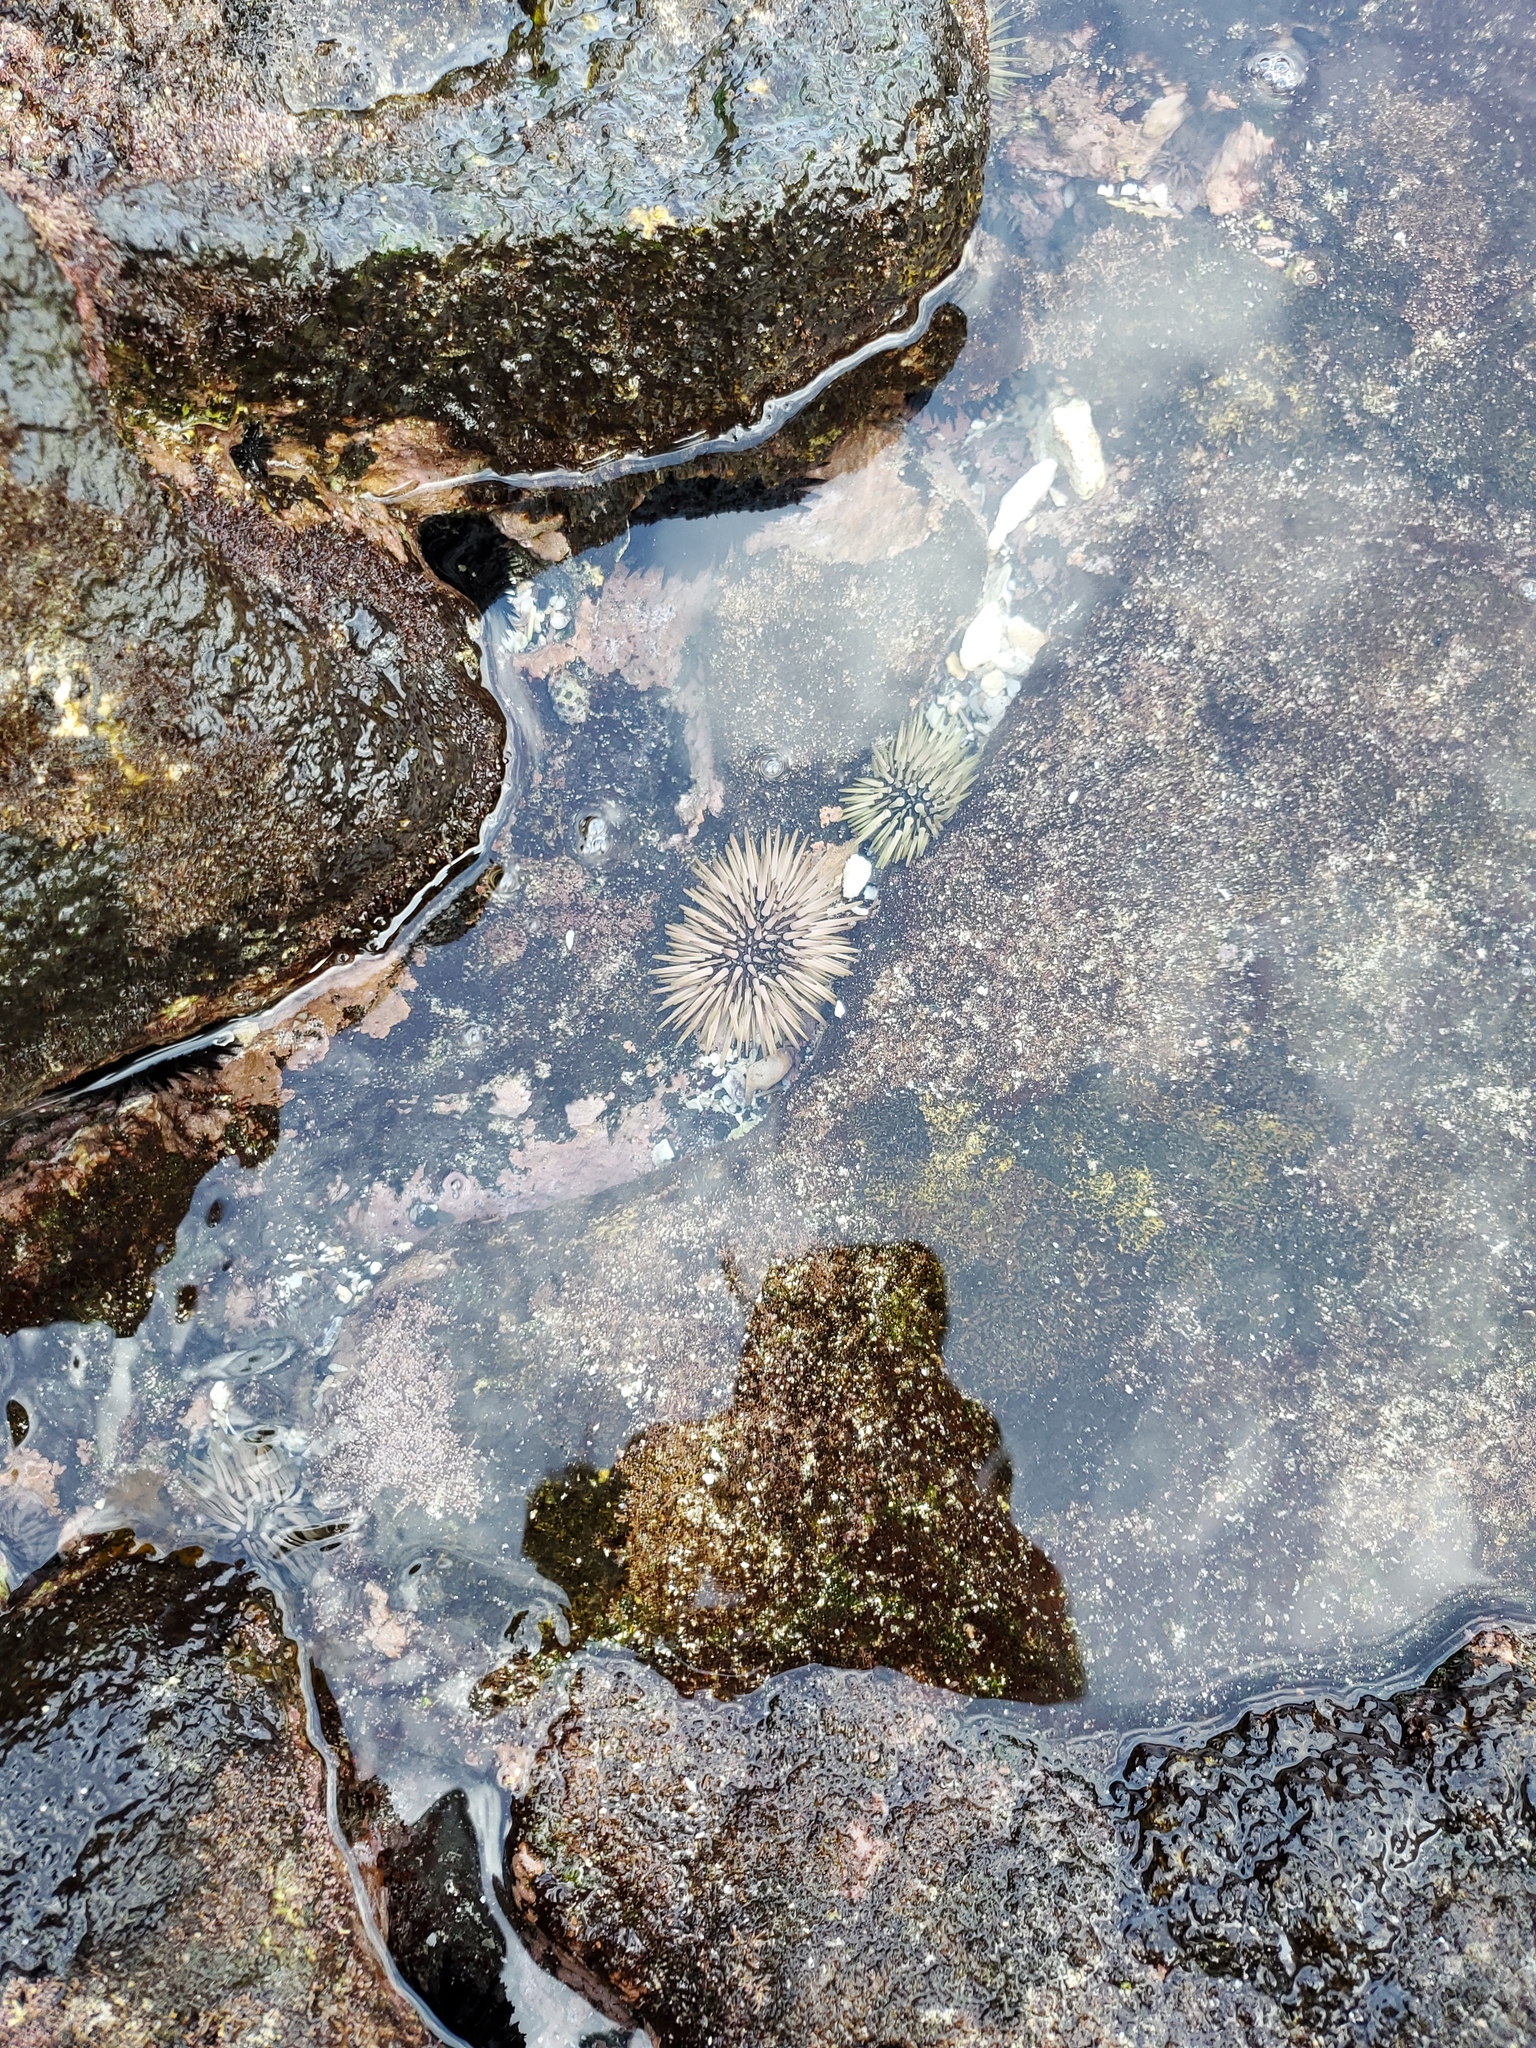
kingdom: Animalia
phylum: Echinodermata
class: Echinoidea
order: Camarodonta
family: Echinometridae
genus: Echinometra
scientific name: Echinometra mathaei
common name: Rock-boring urchin
